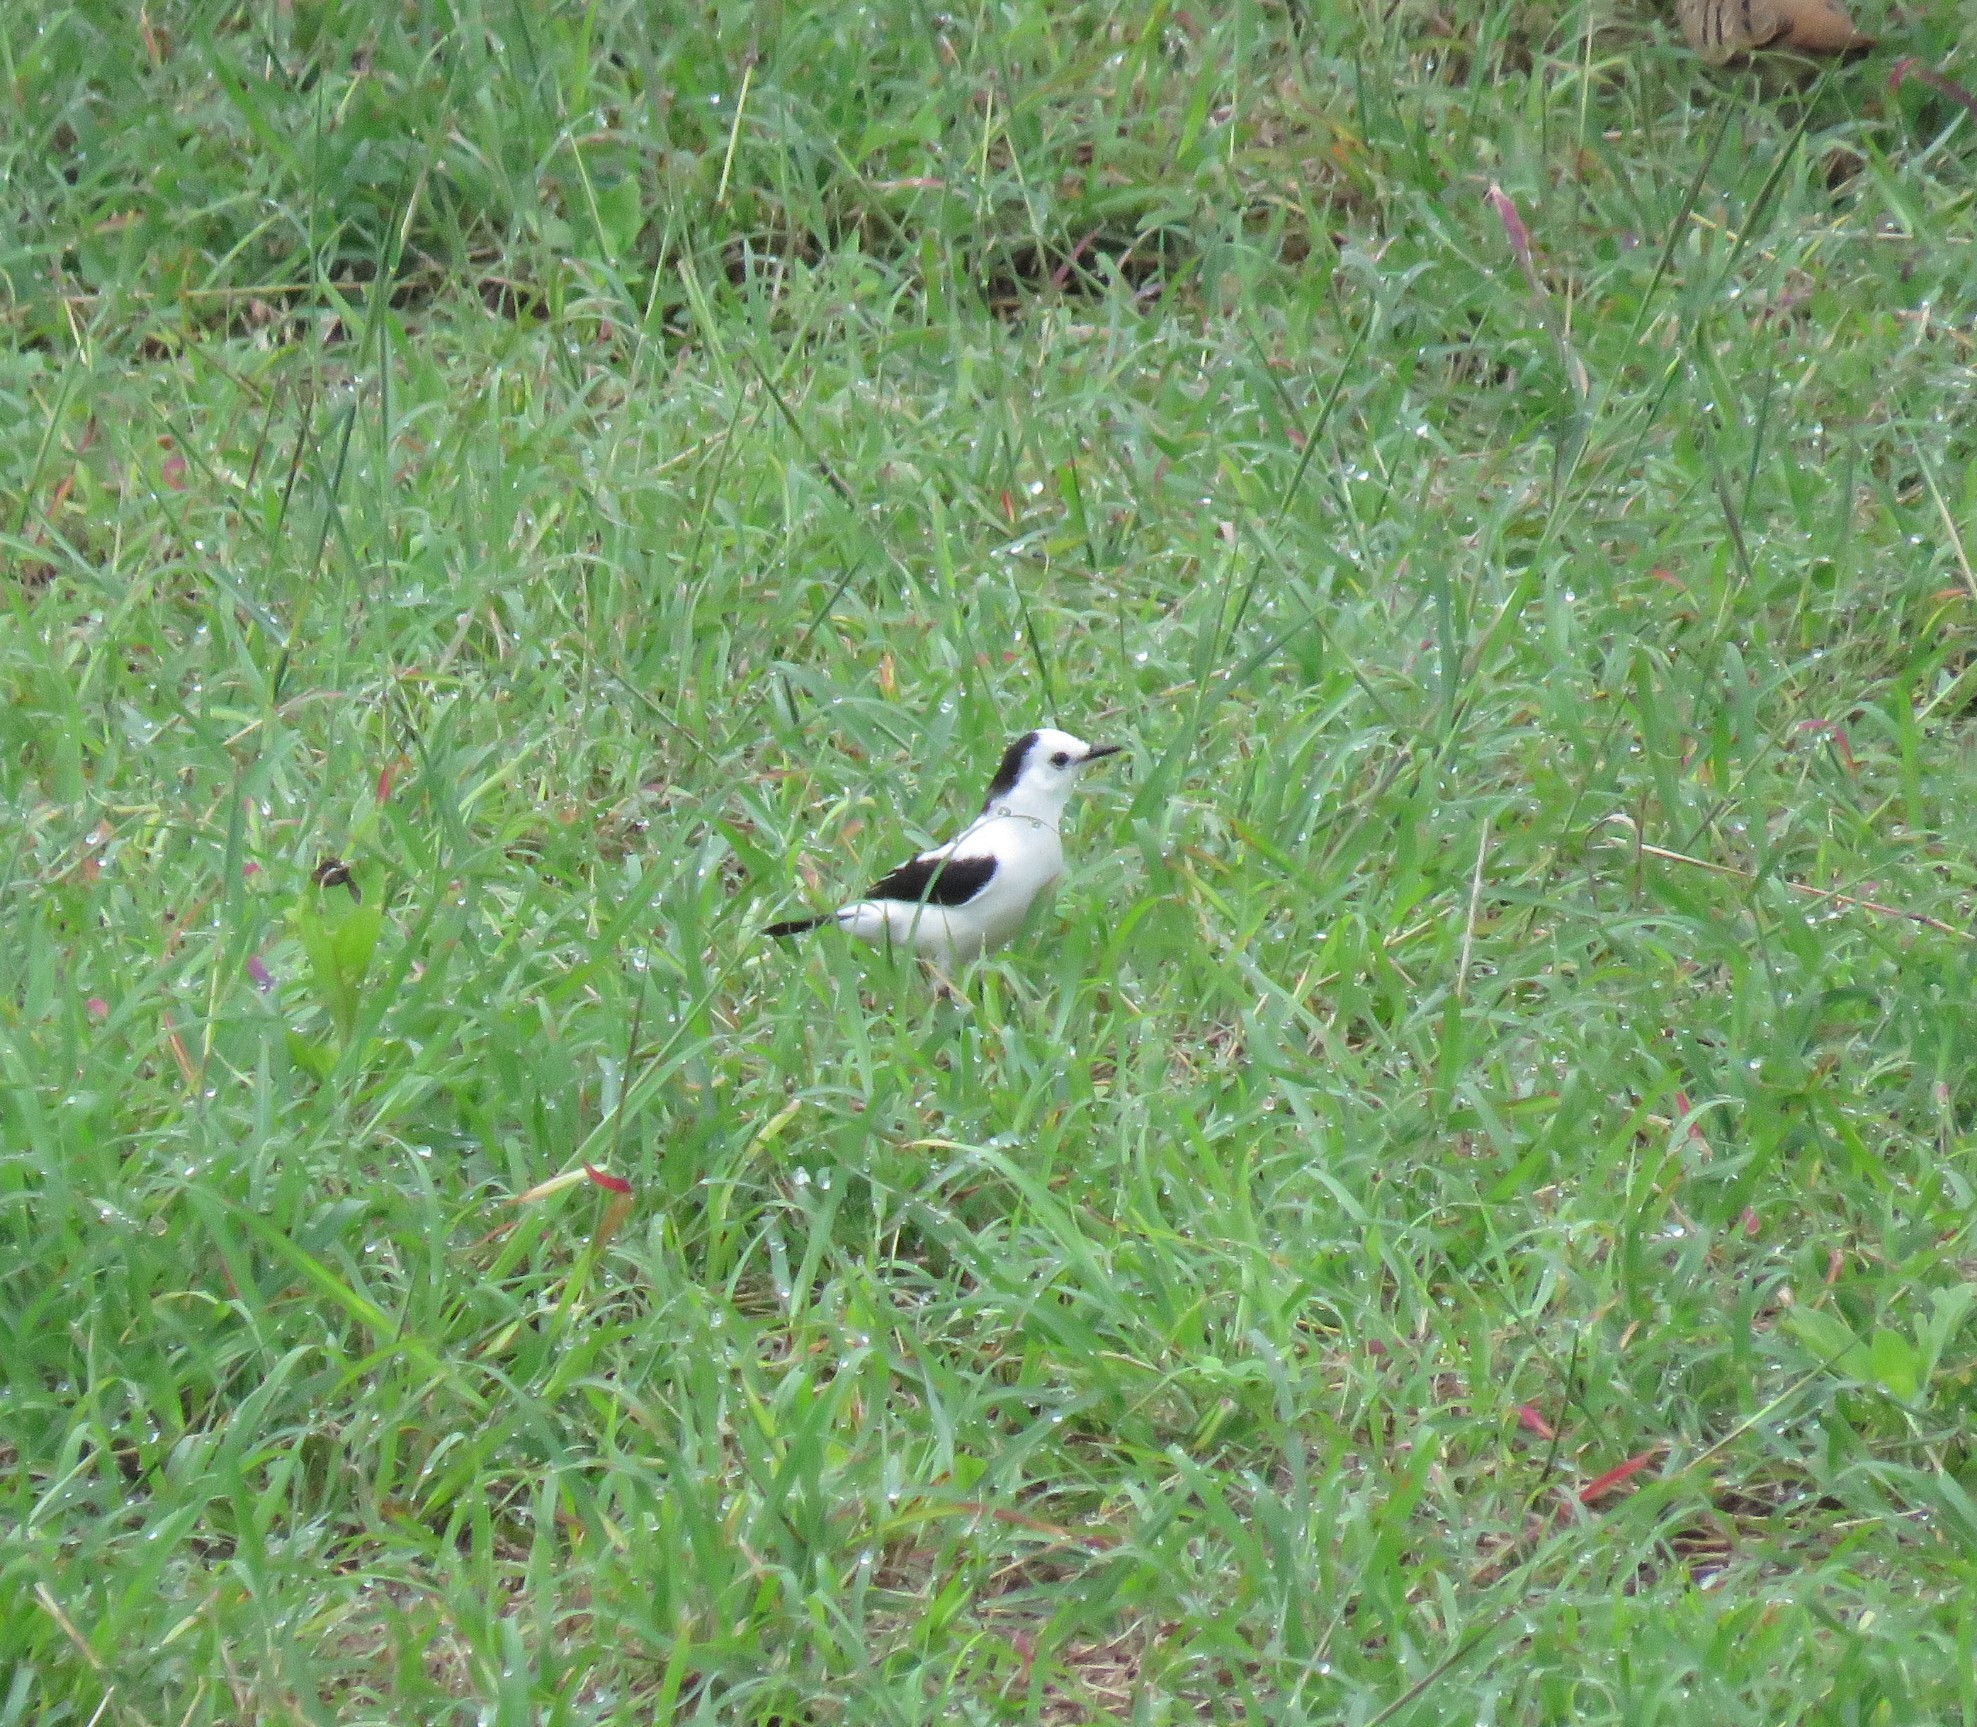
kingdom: Animalia
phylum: Chordata
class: Aves
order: Passeriformes
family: Tyrannidae
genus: Fluvicola
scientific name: Fluvicola pica
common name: Pied water-tyrant
